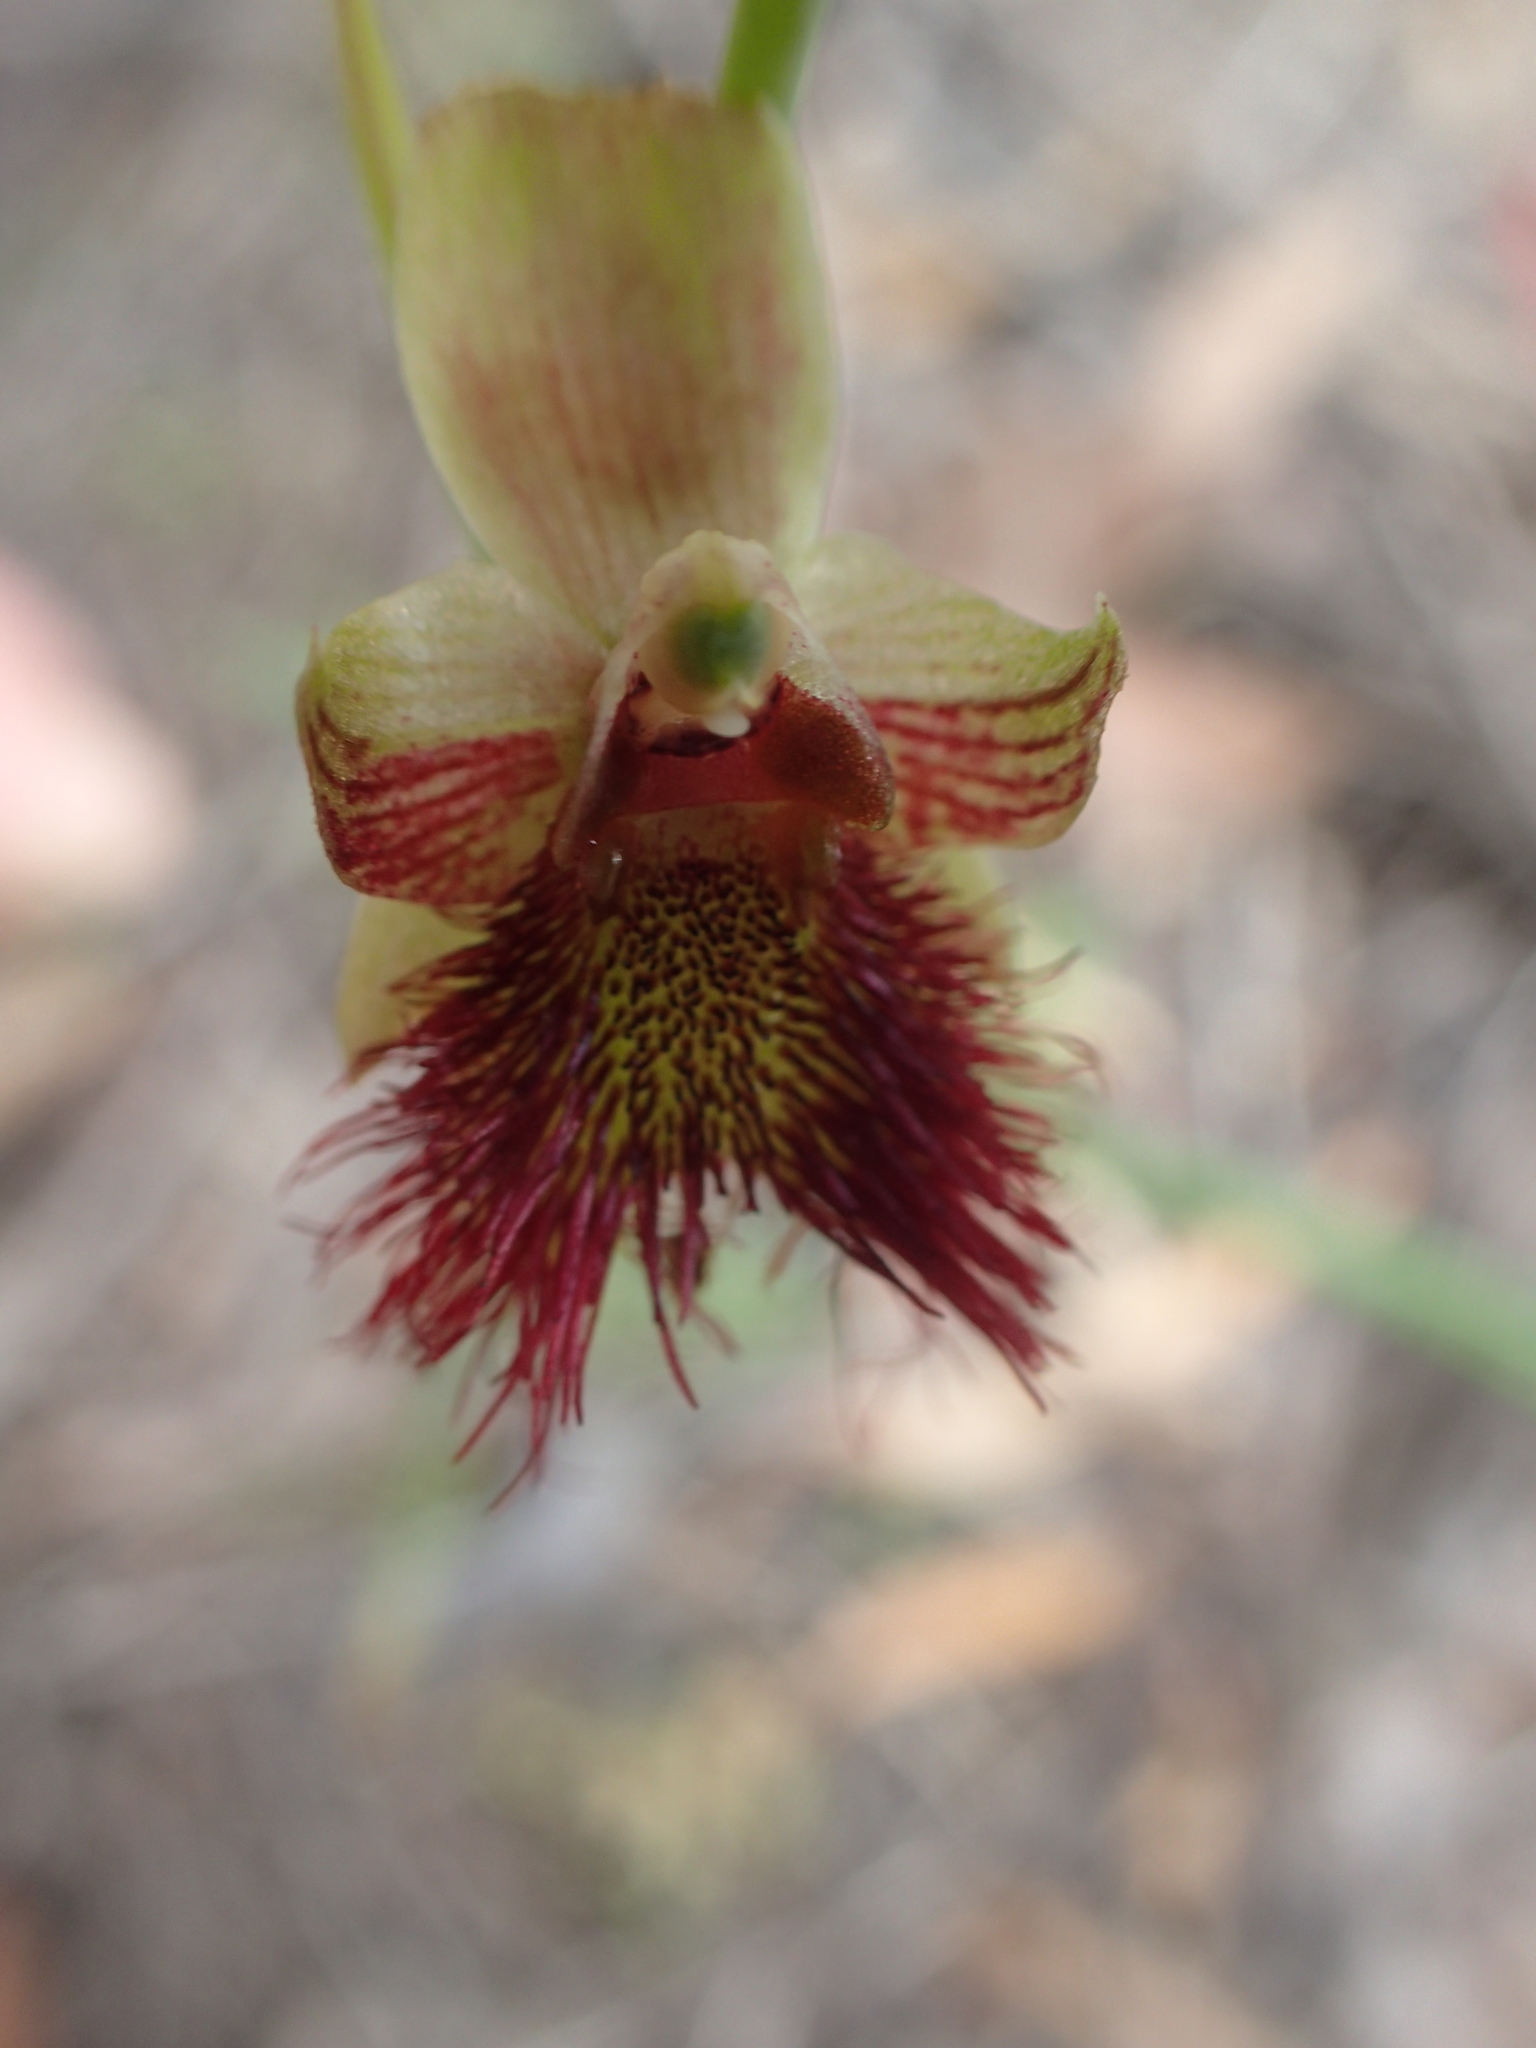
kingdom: Plantae
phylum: Tracheophyta
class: Liliopsida
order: Asparagales
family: Orchidaceae
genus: Calochilus
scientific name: Calochilus paludosus
